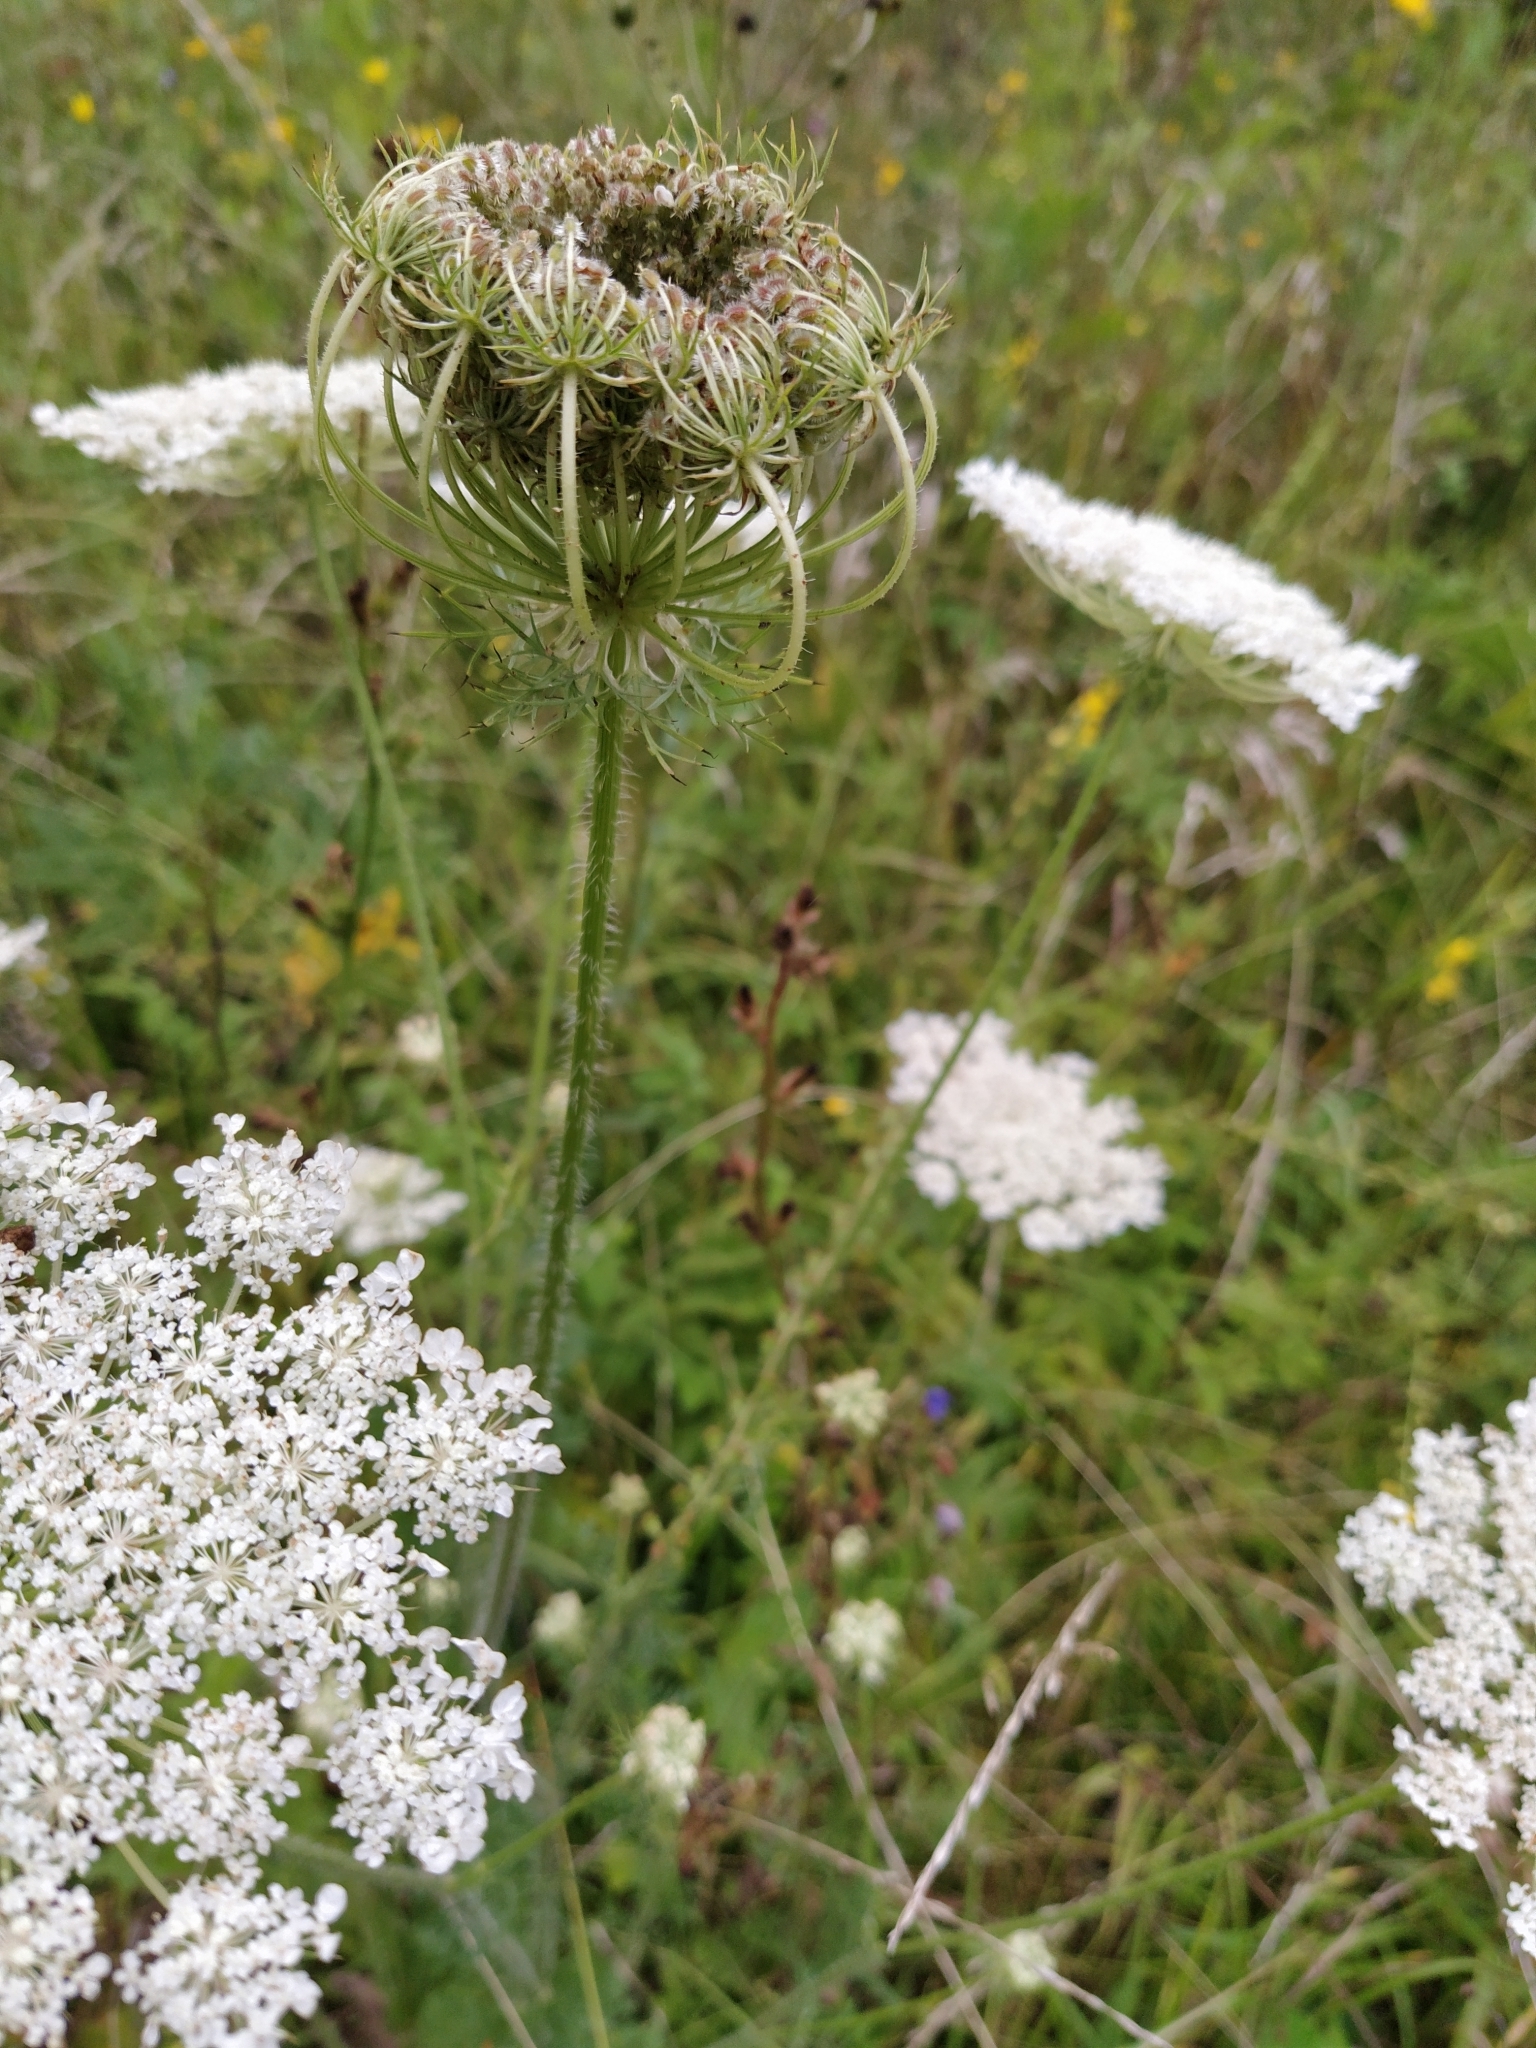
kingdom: Plantae
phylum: Tracheophyta
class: Magnoliopsida
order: Apiales
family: Apiaceae
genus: Daucus
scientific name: Daucus carota
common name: Wild carrot
